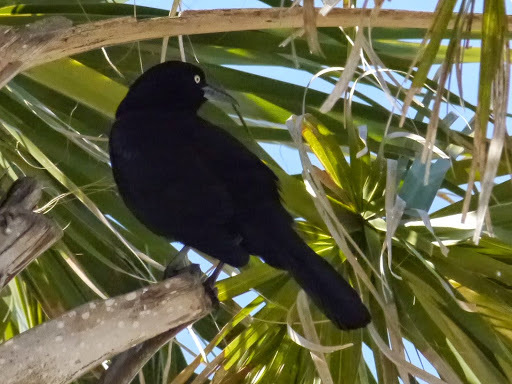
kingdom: Animalia
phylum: Chordata
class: Aves
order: Passeriformes
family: Icteridae
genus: Quiscalus
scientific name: Quiscalus major
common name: Boat-tailed grackle
